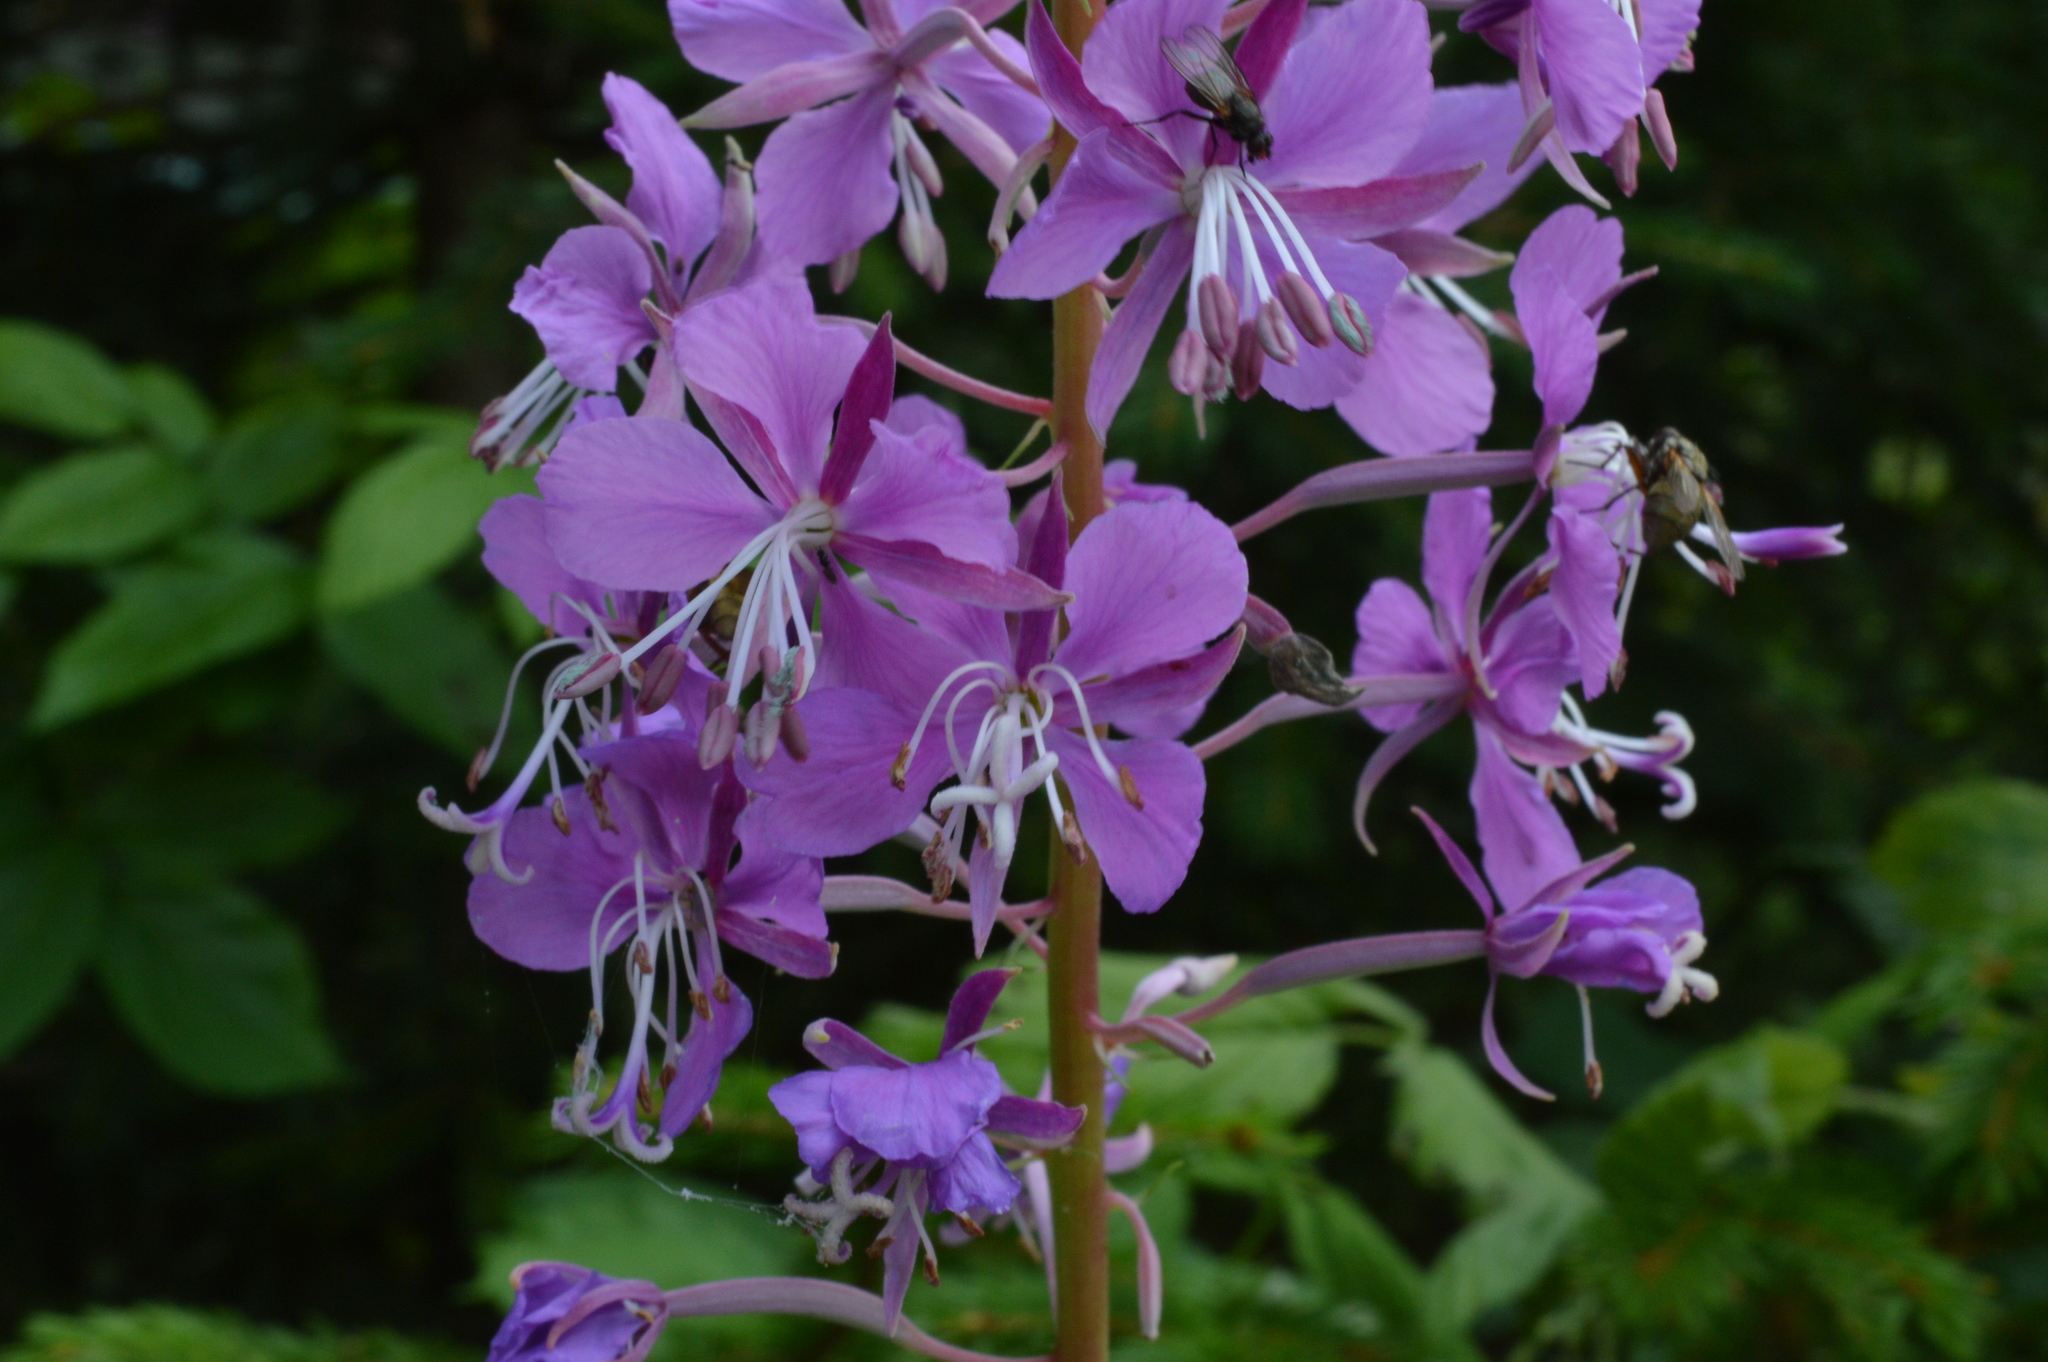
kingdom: Plantae
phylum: Tracheophyta
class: Magnoliopsida
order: Myrtales
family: Onagraceae
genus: Chamaenerion
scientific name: Chamaenerion angustifolium
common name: Fireweed
